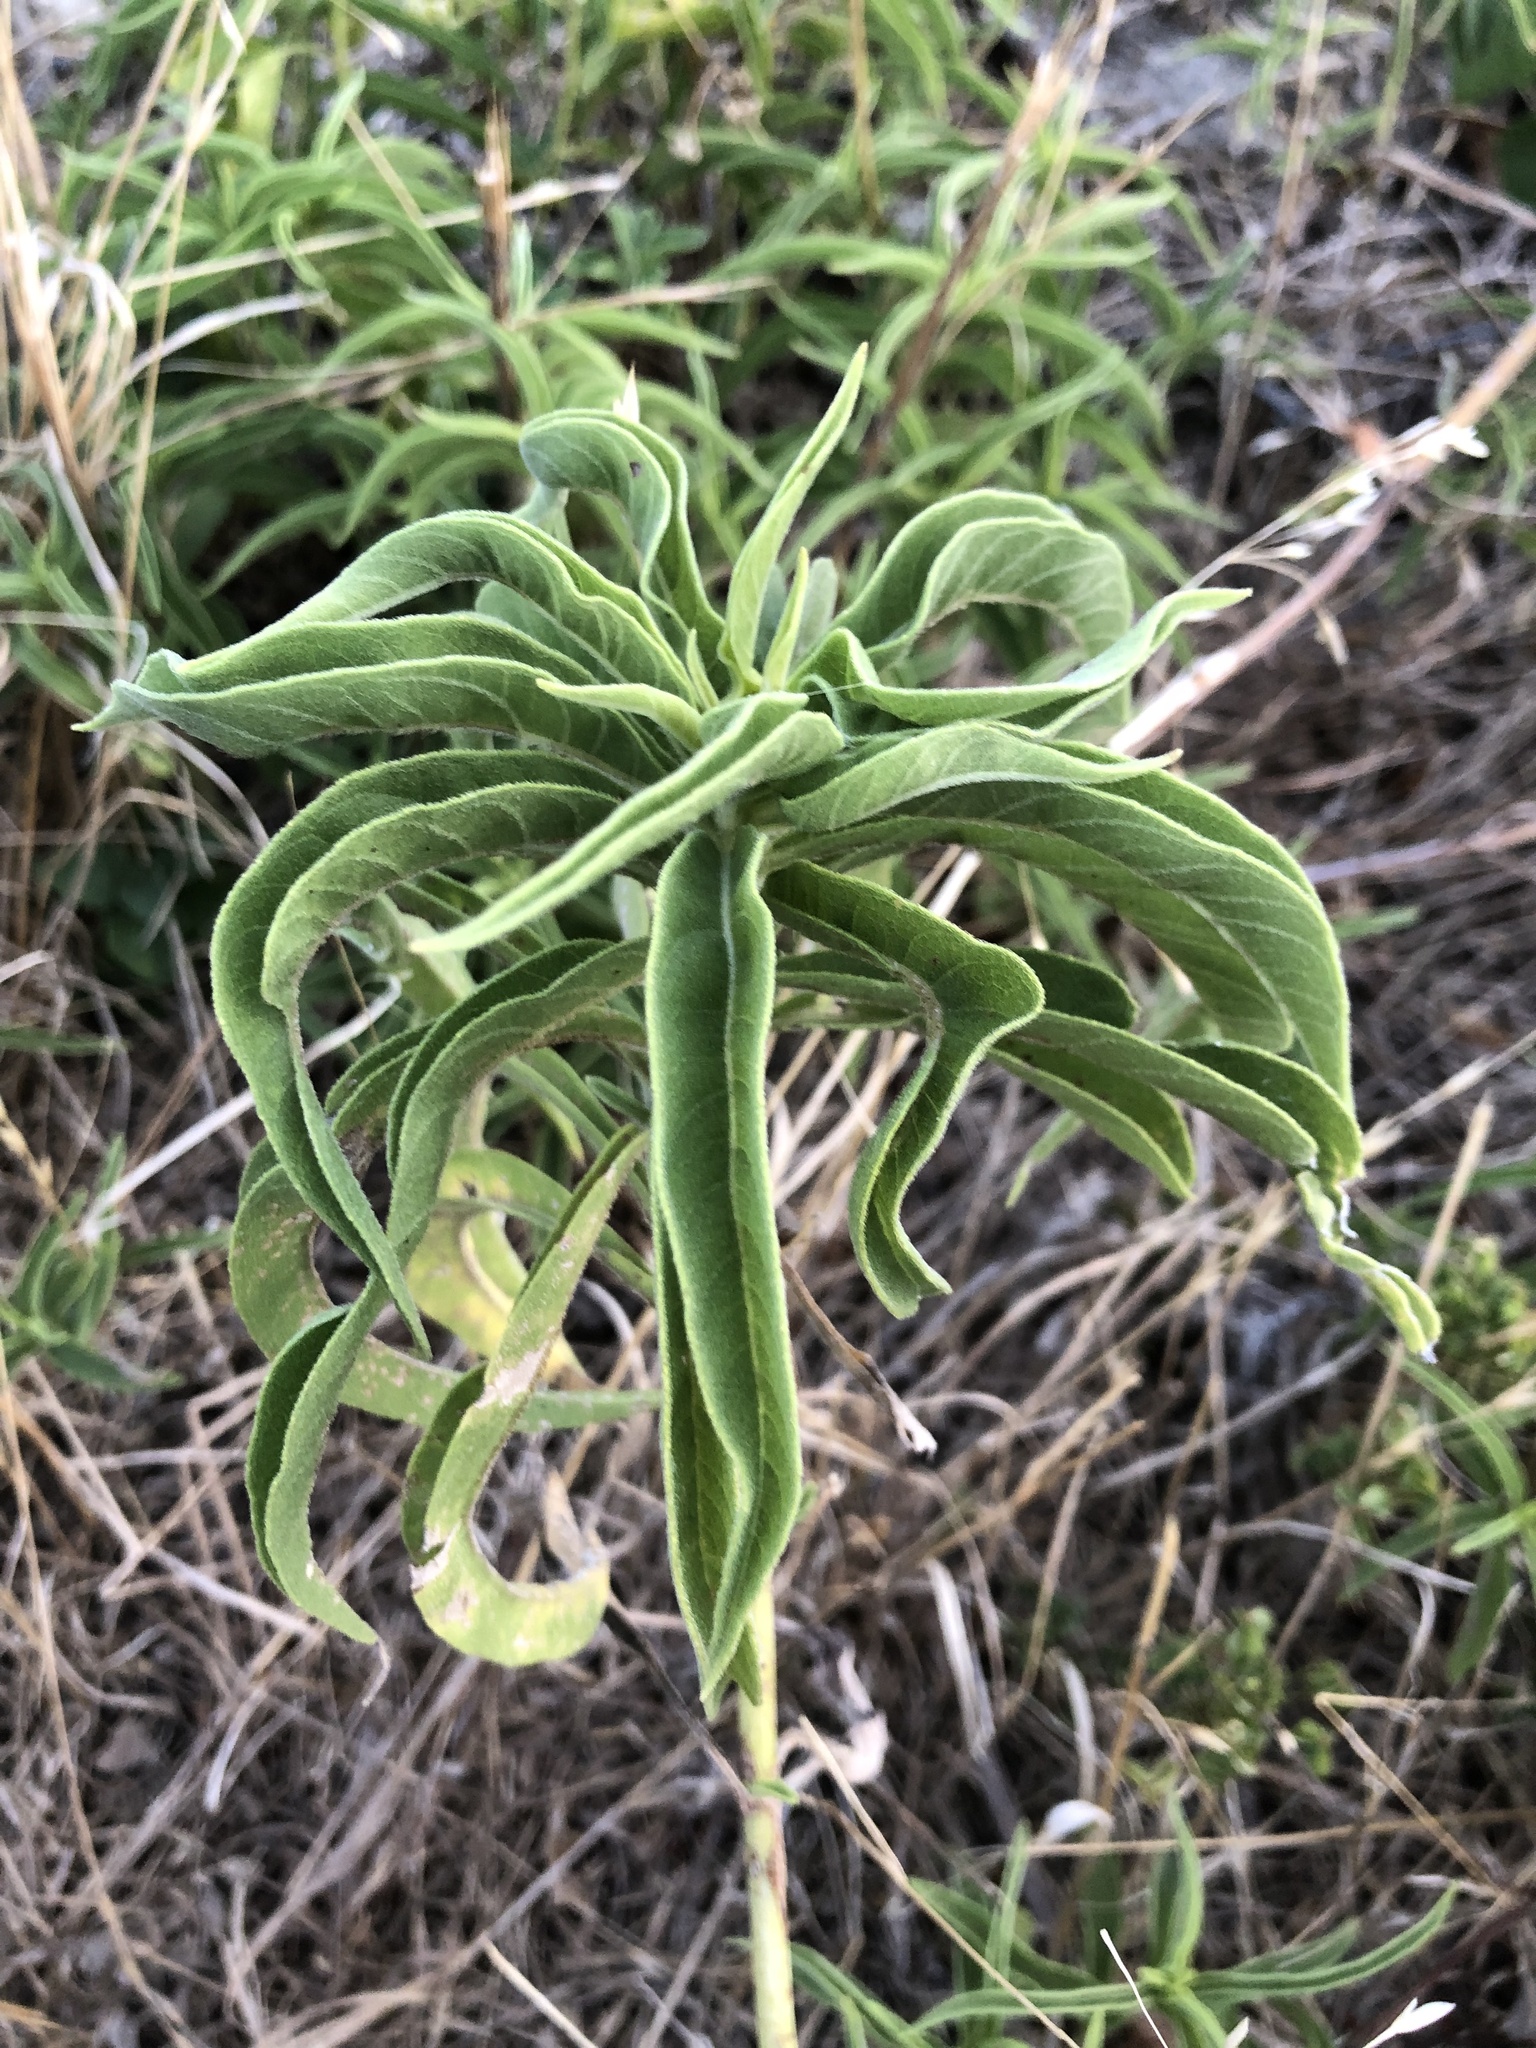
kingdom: Plantae
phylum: Tracheophyta
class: Magnoliopsida
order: Asterales
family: Asteraceae
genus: Helianthus
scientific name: Helianthus maximiliani
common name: Maximilian's sunflower
